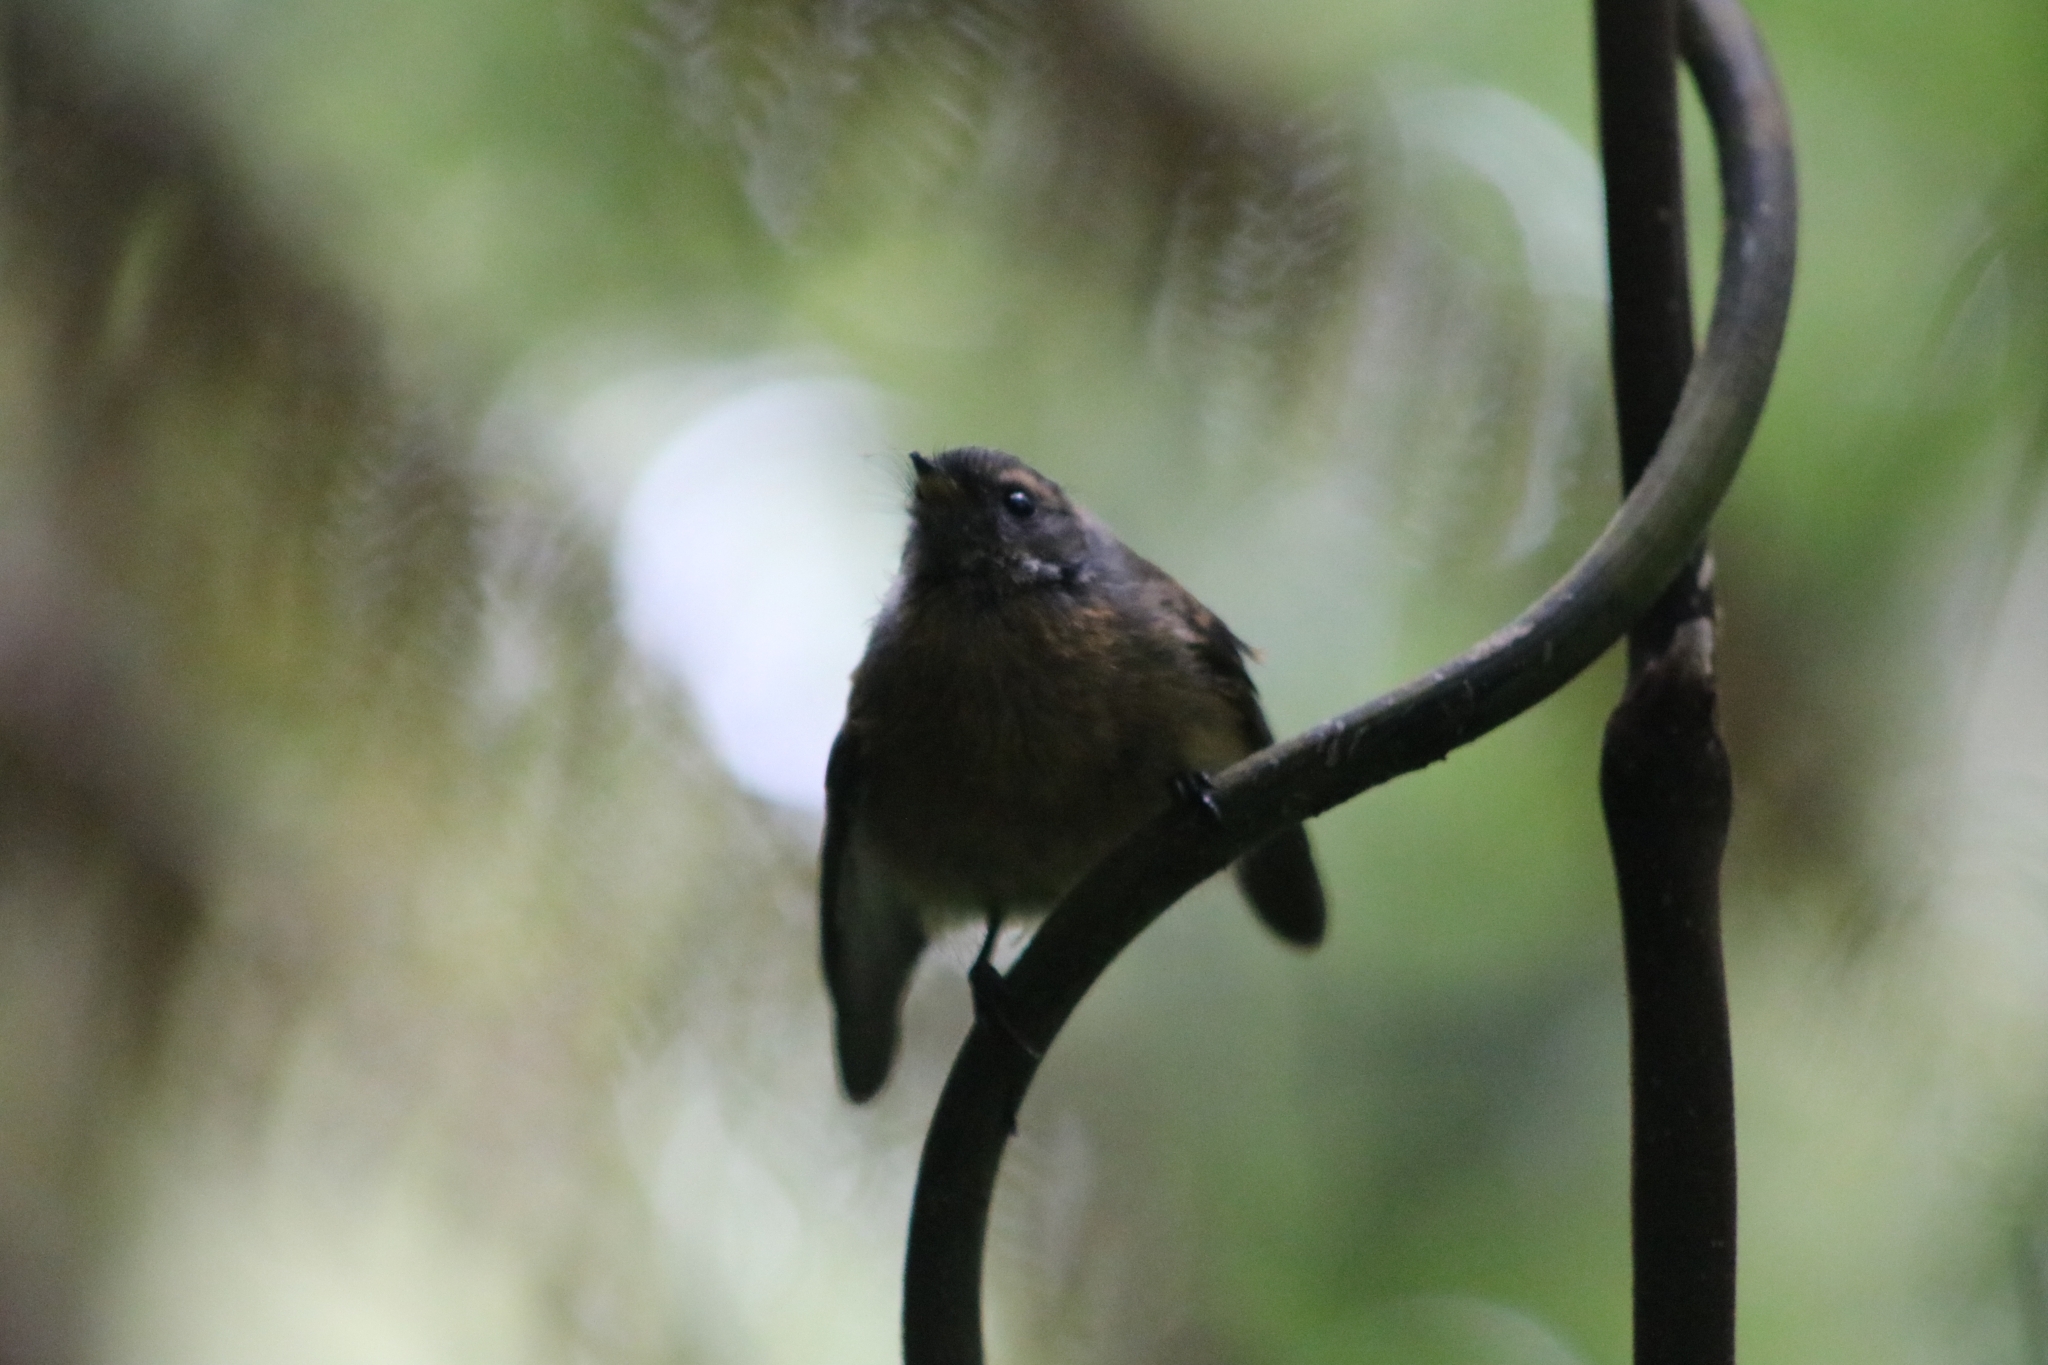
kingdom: Animalia
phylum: Chordata
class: Aves
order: Passeriformes
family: Rhipiduridae
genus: Rhipidura
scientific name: Rhipidura fuliginosa
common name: New zealand fantail
